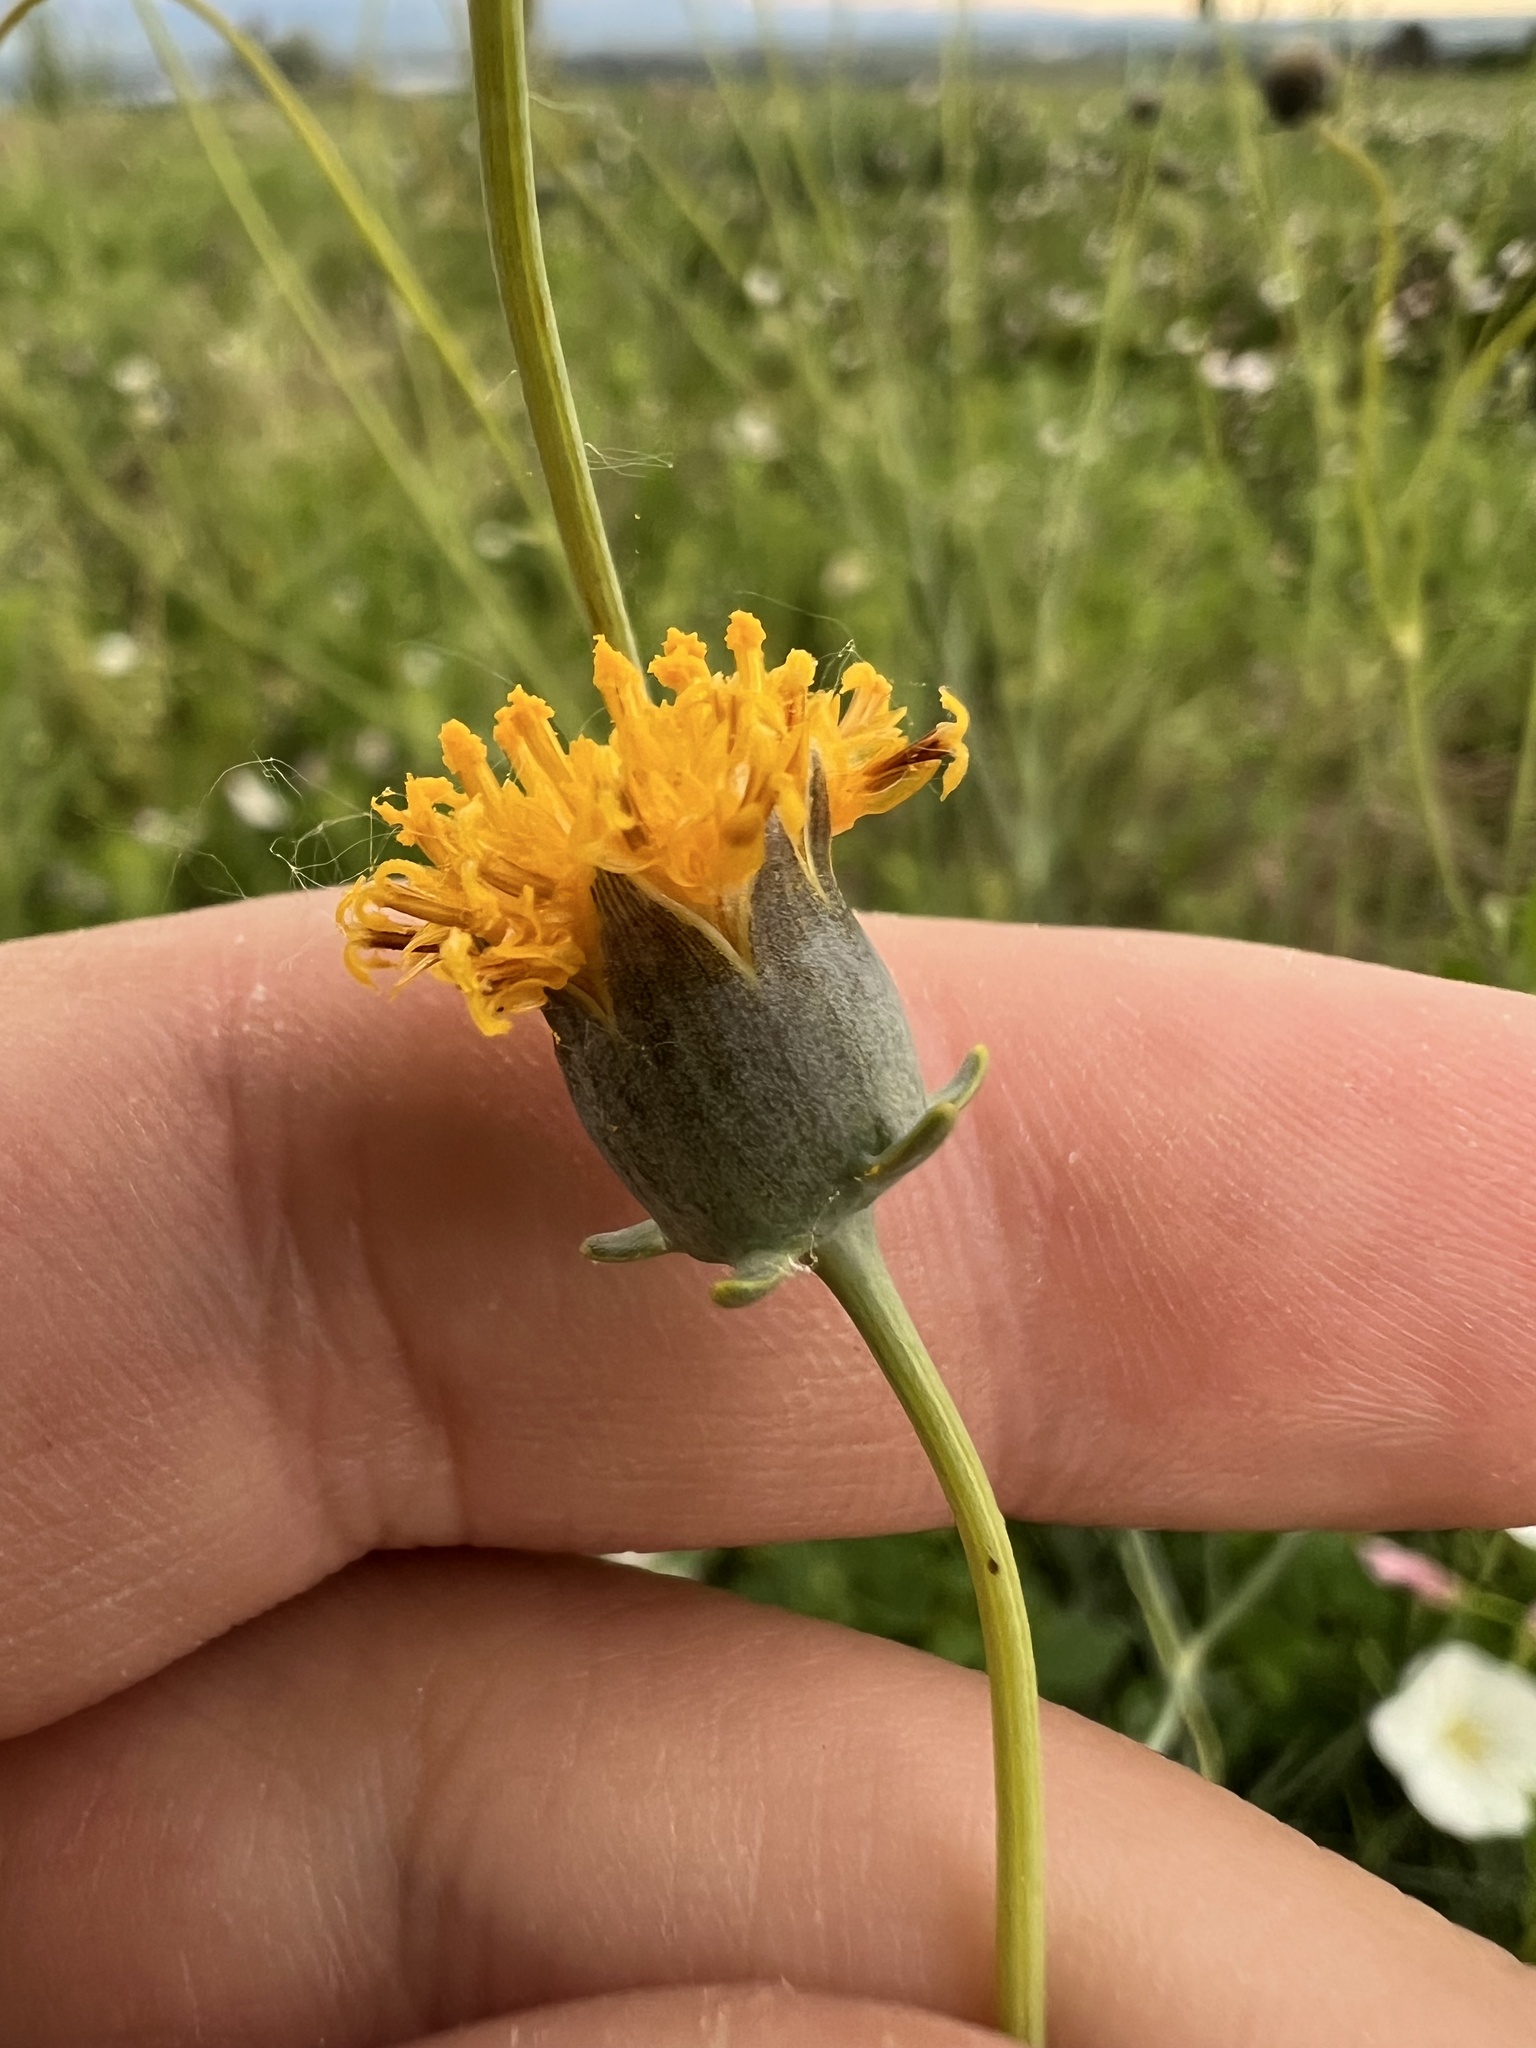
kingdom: Plantae
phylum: Tracheophyta
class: Magnoliopsida
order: Asterales
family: Asteraceae
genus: Thelesperma
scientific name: Thelesperma megapotamicum
